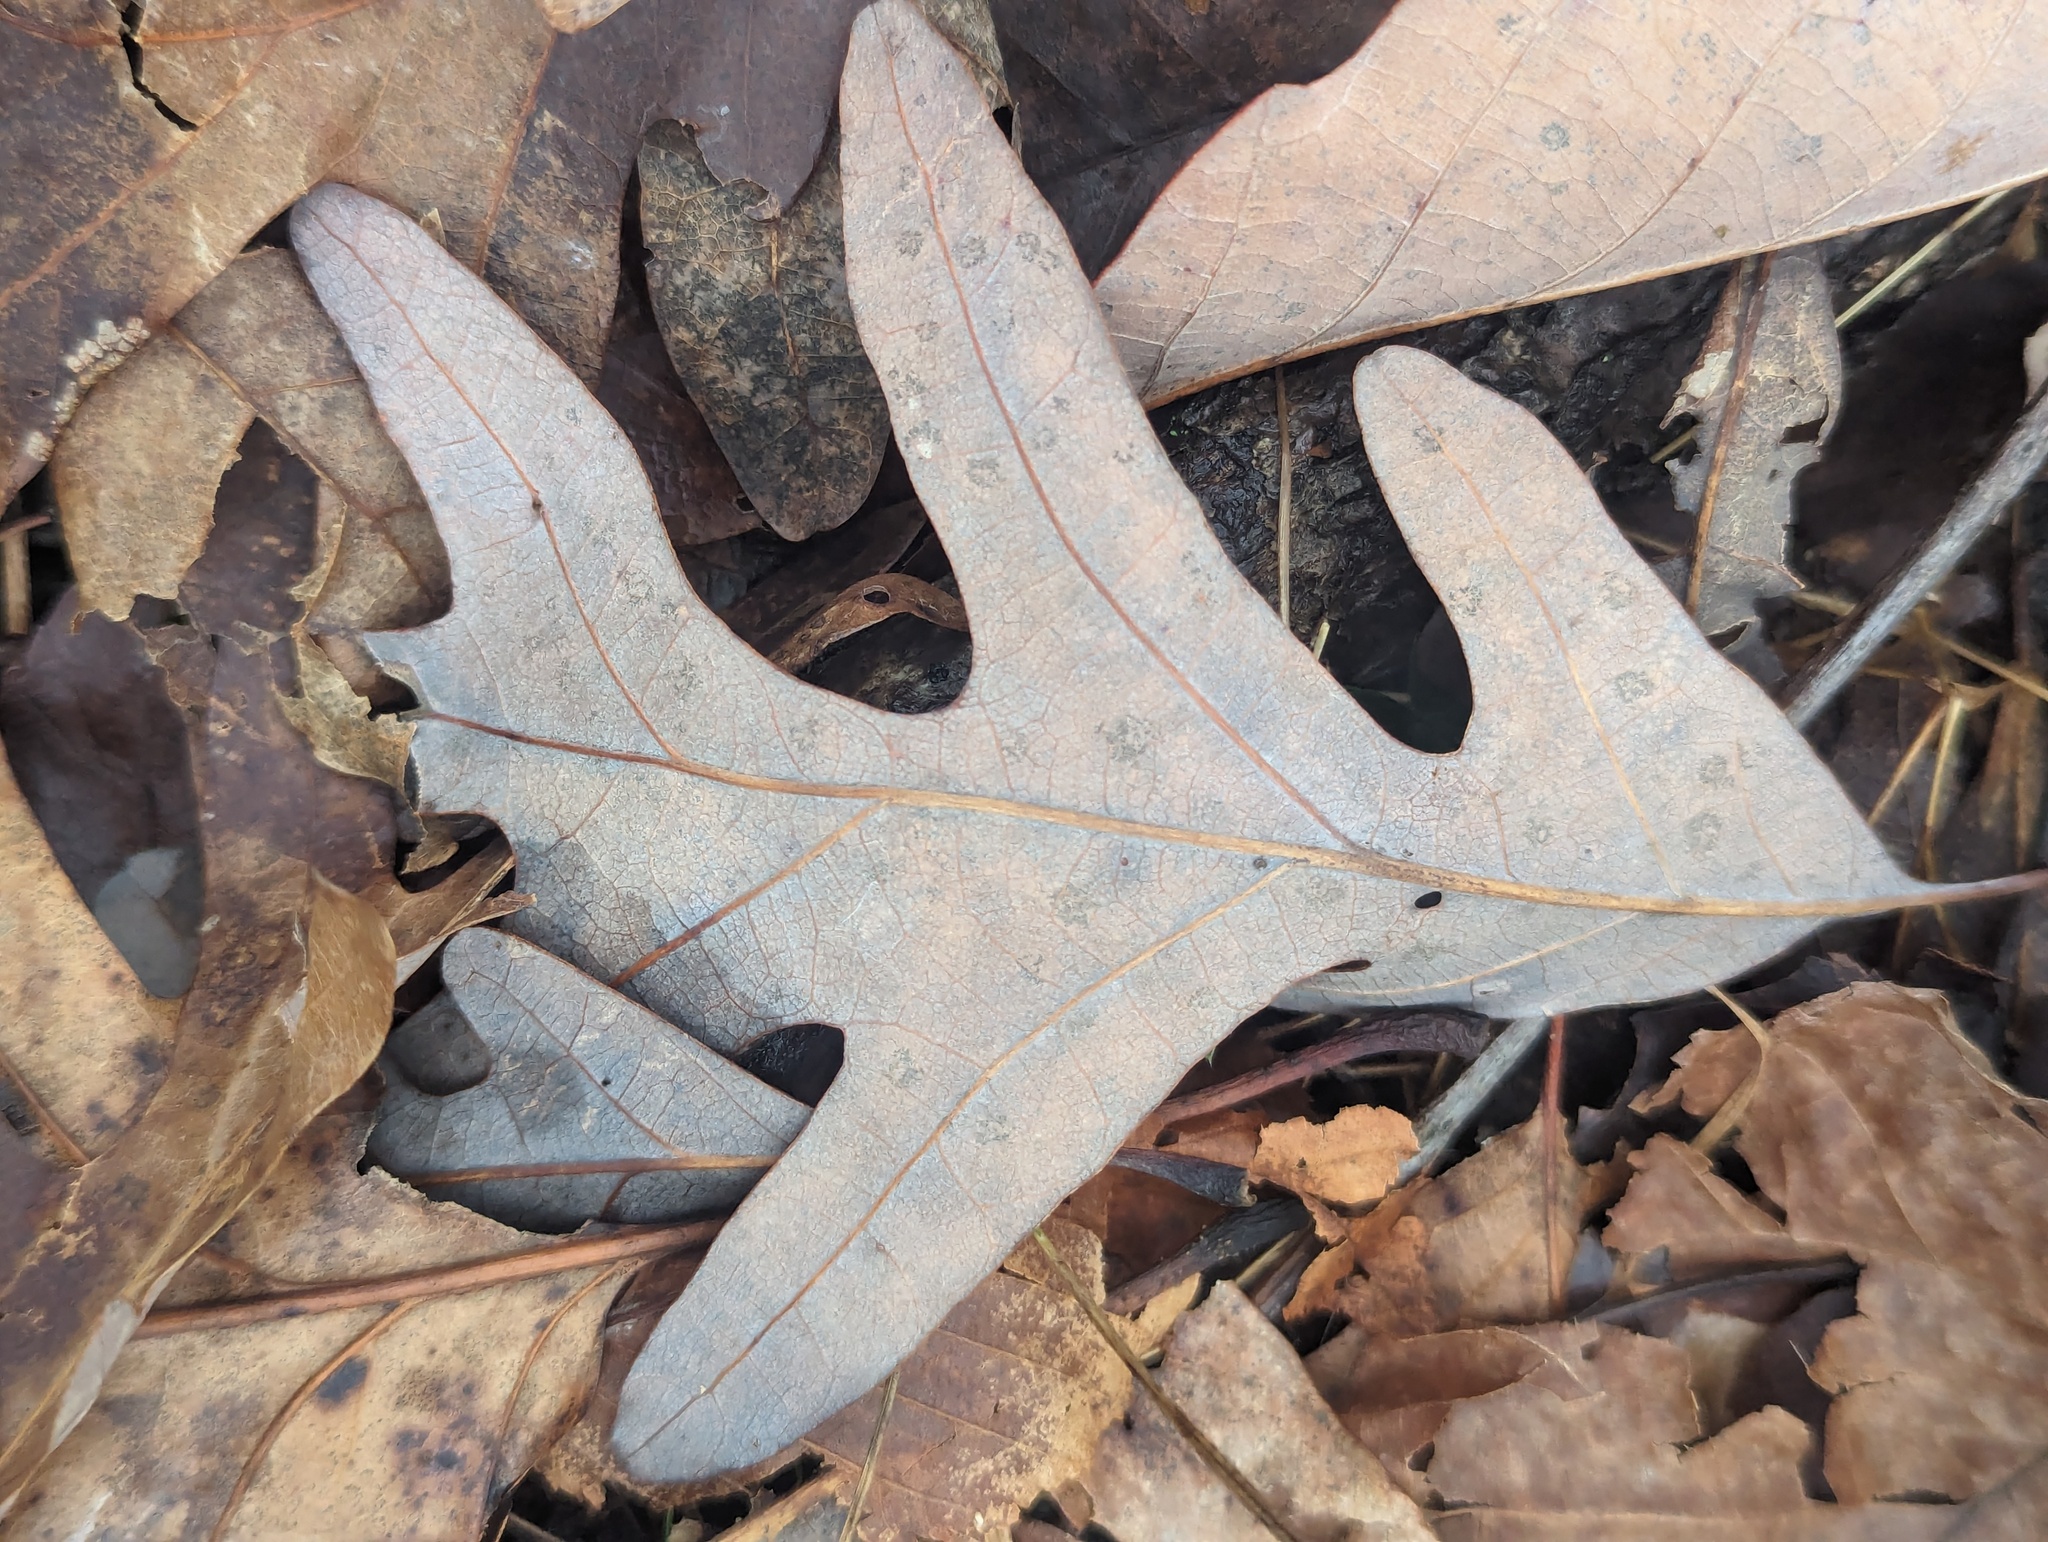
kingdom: Plantae
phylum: Tracheophyta
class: Magnoliopsida
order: Fagales
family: Fagaceae
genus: Quercus
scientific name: Quercus alba
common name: White oak
